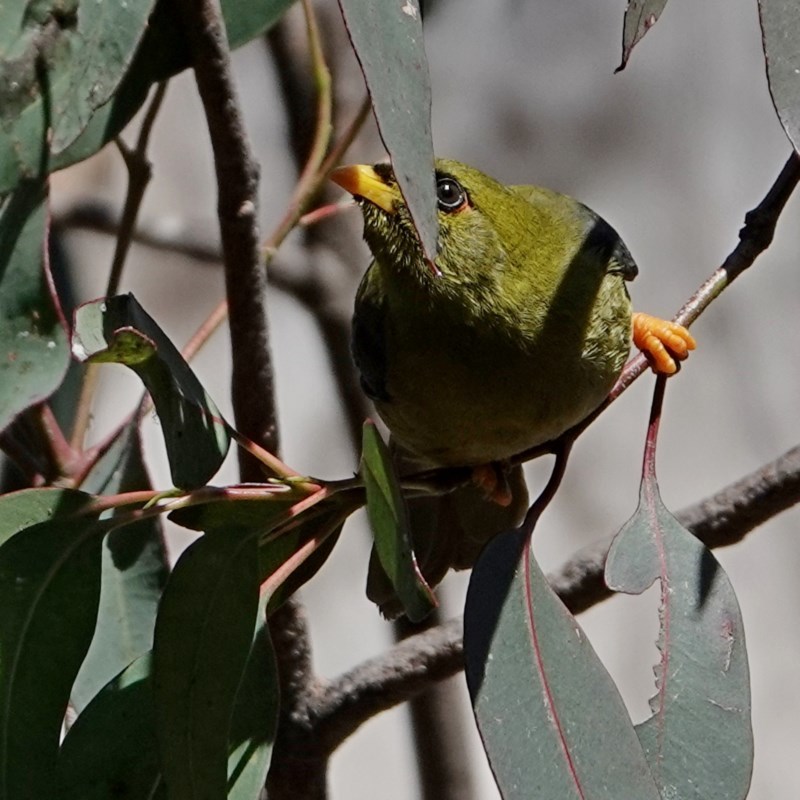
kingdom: Animalia
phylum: Chordata
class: Aves
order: Passeriformes
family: Meliphagidae
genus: Manorina
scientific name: Manorina melanophrys
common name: Bell miner
